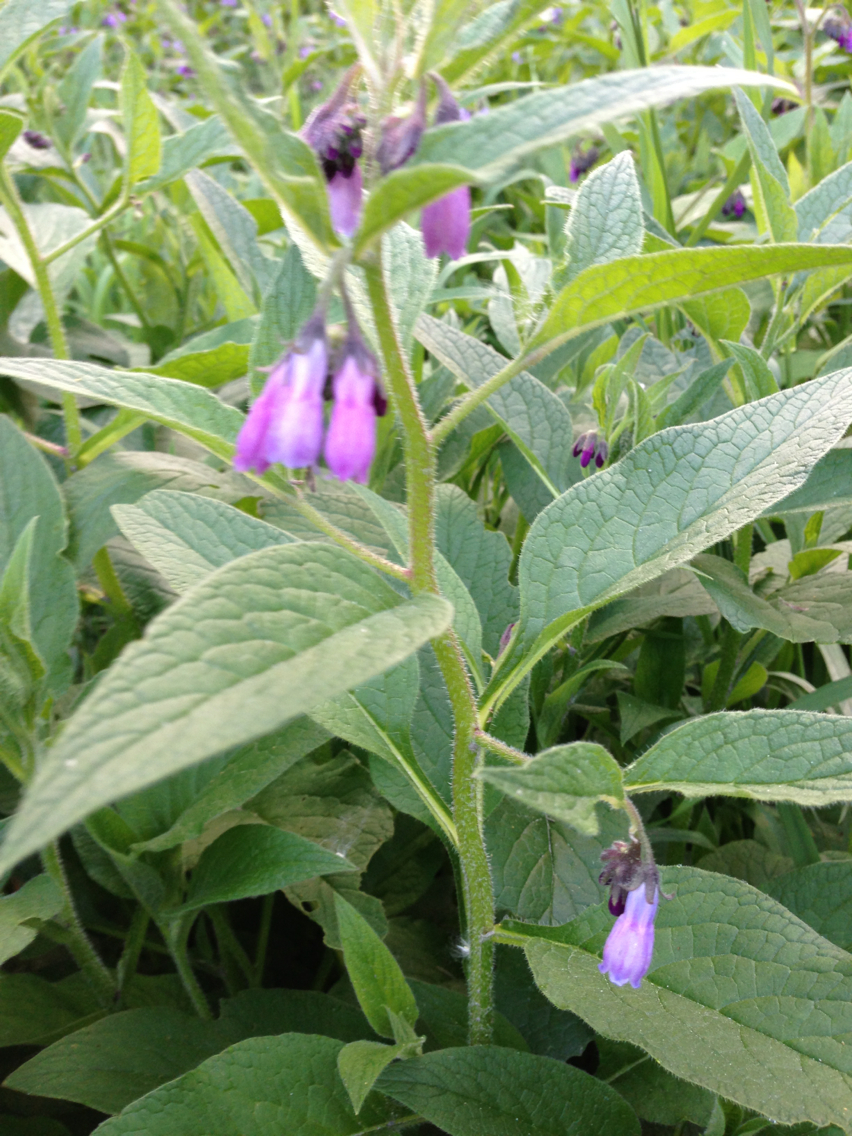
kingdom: Plantae
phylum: Tracheophyta
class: Magnoliopsida
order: Boraginales
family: Boraginaceae
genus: Symphytum
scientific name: Symphytum officinale
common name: Common comfrey
